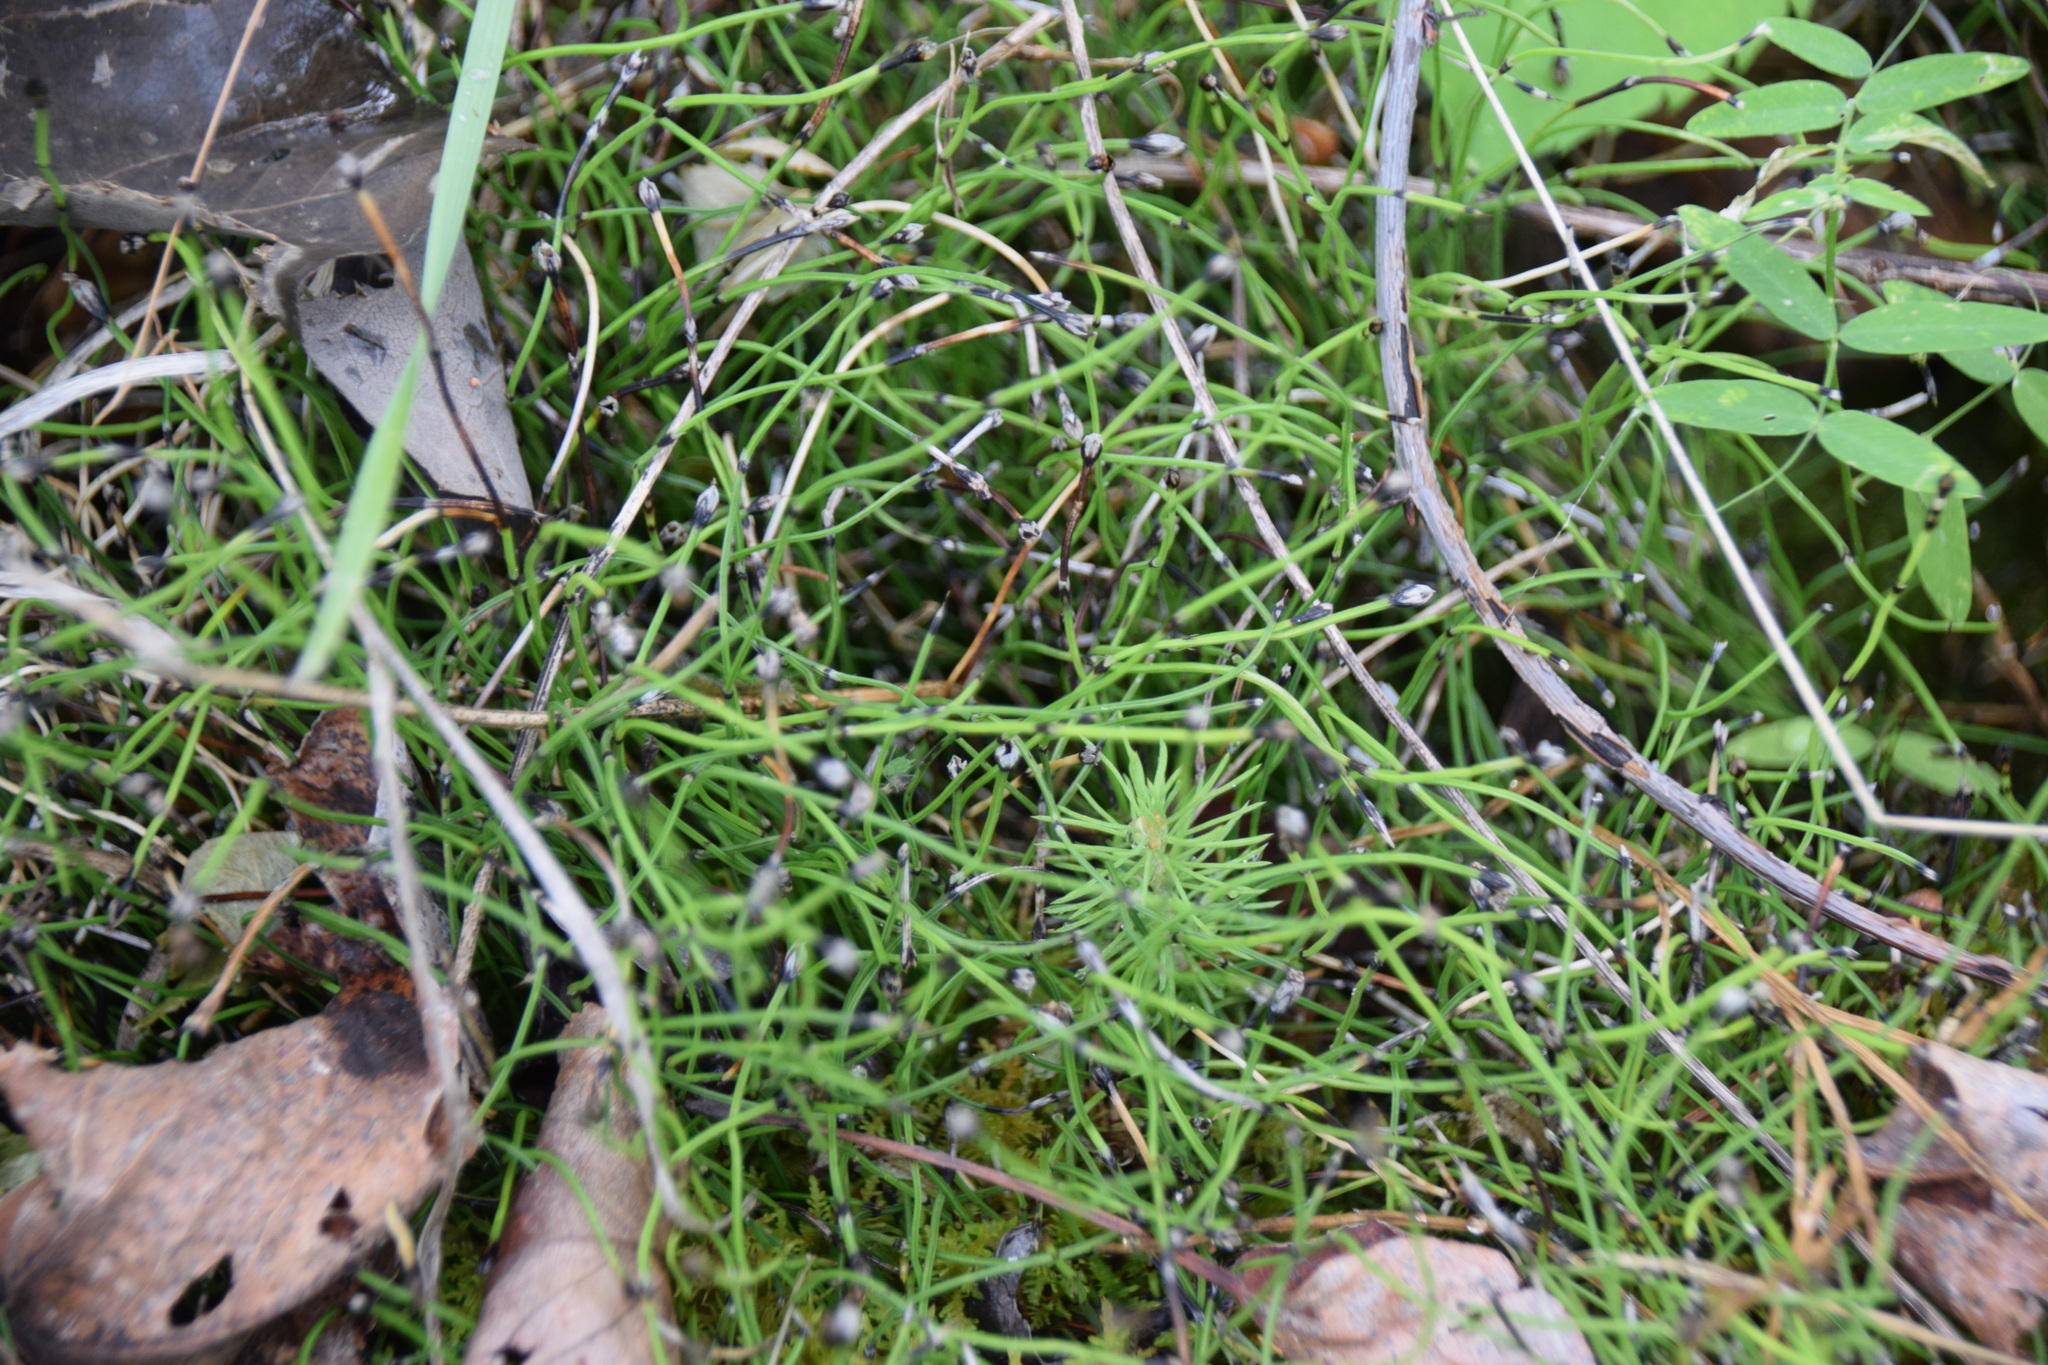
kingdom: Plantae
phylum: Tracheophyta
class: Polypodiopsida
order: Equisetales
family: Equisetaceae
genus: Equisetum
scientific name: Equisetum scirpoides
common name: Delicate horsetail
